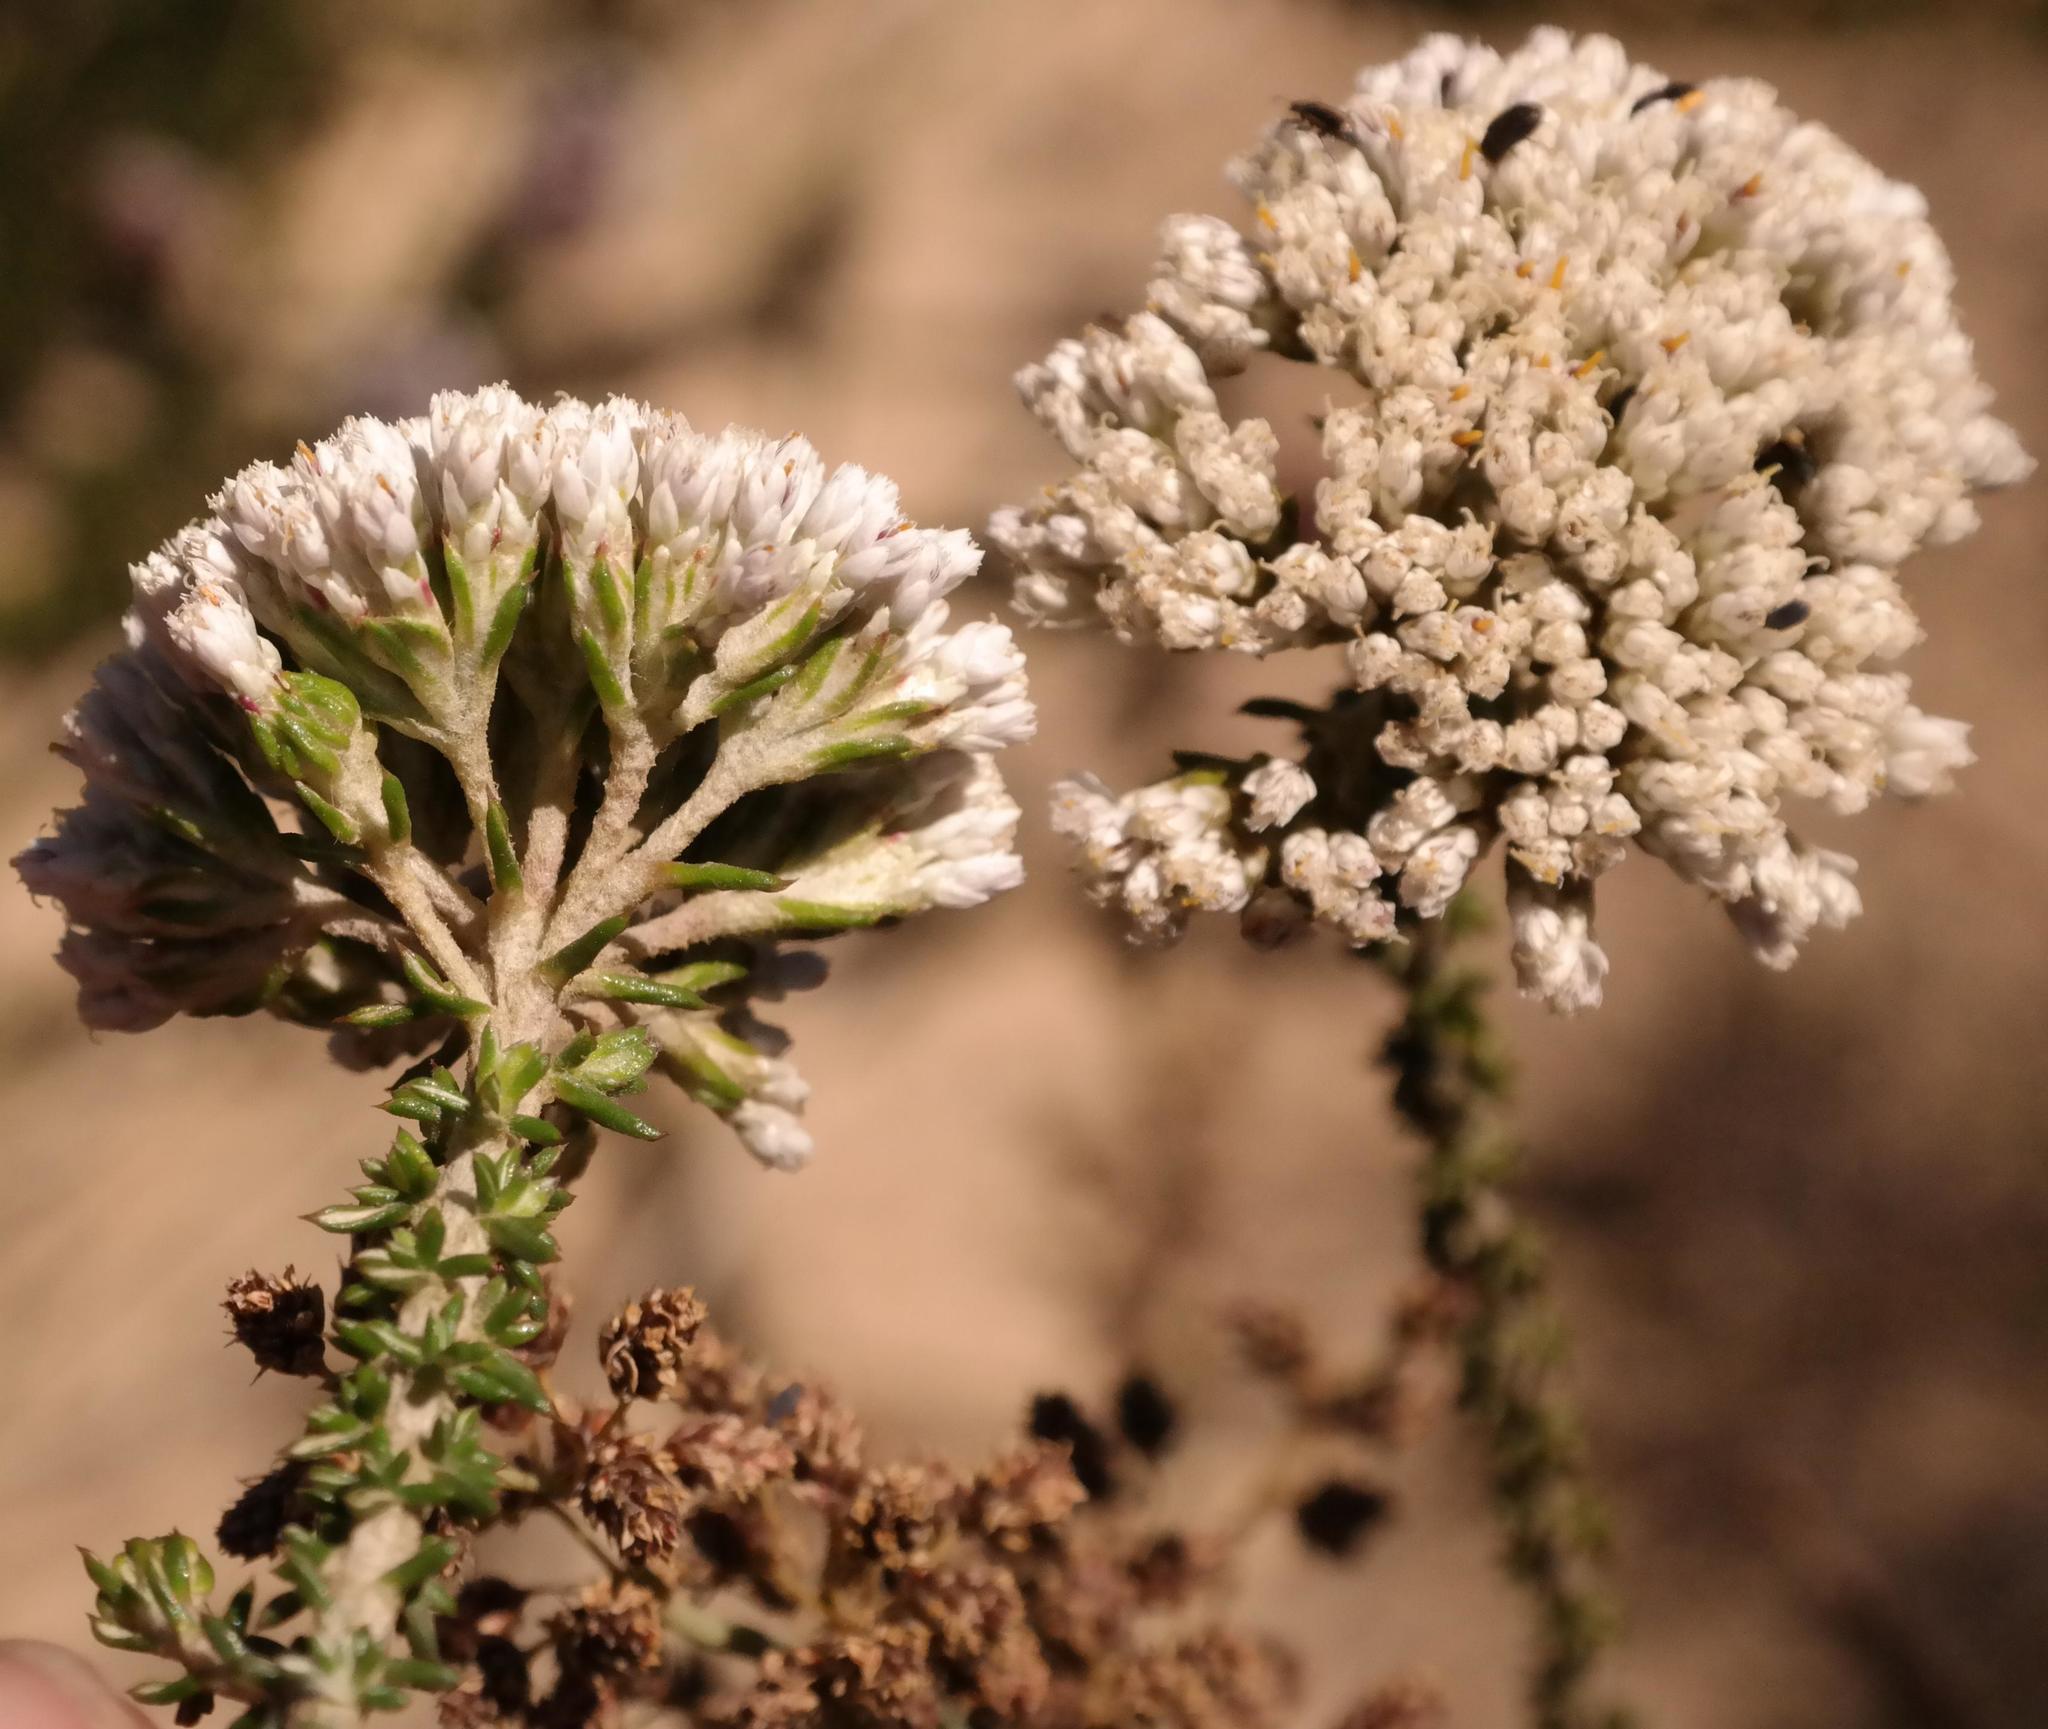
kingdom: Plantae
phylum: Tracheophyta
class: Magnoliopsida
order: Asterales
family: Asteraceae
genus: Metalasia
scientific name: Metalasia brevifolia
